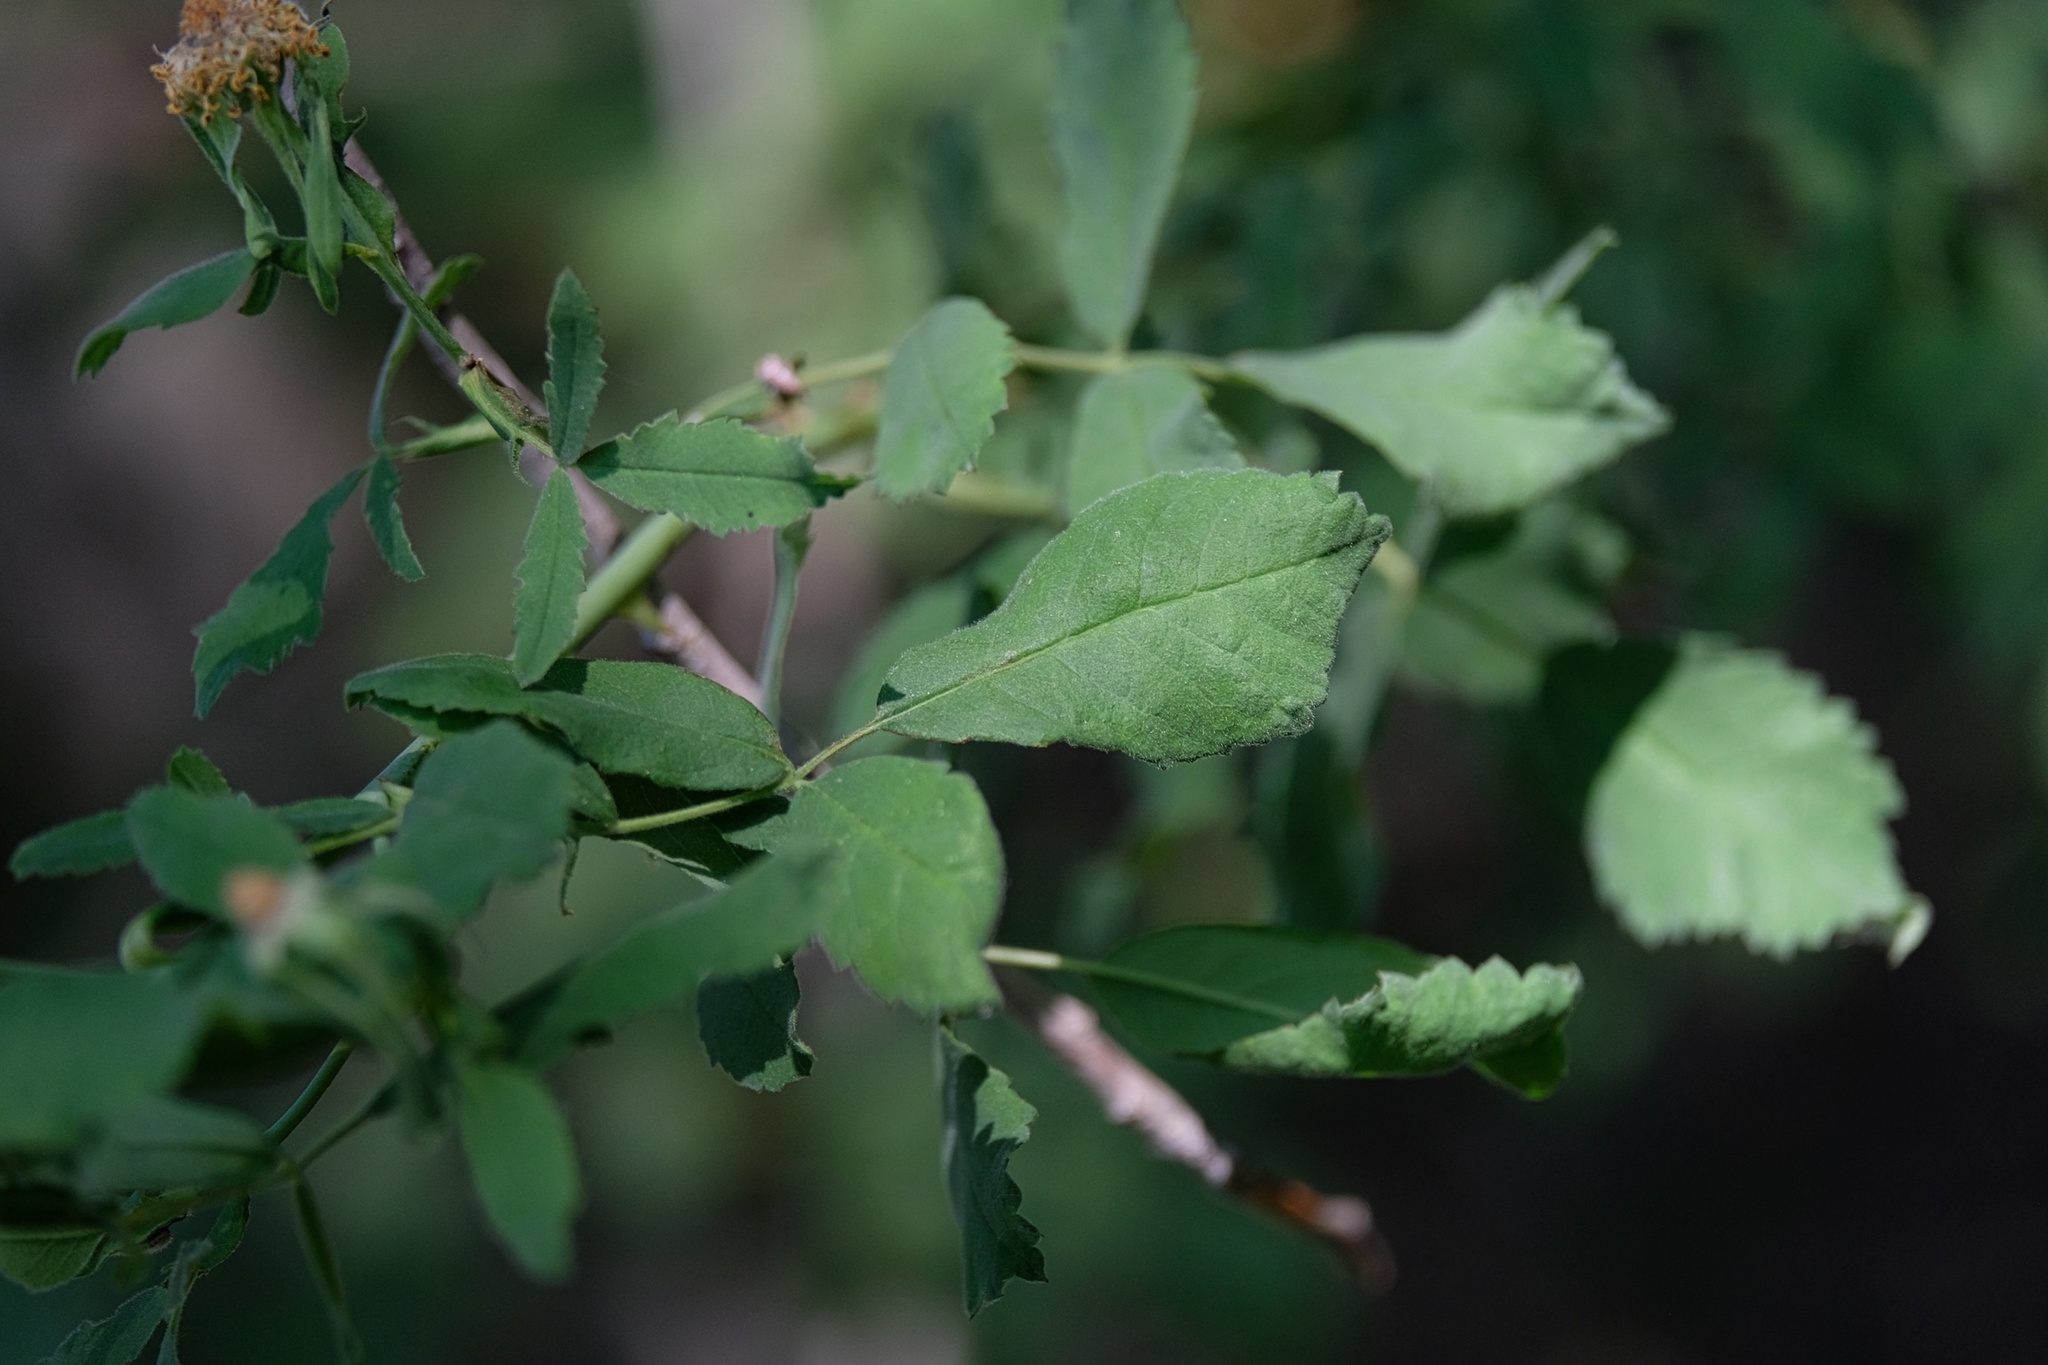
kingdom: Plantae
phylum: Tracheophyta
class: Magnoliopsida
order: Rosales
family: Rosaceae
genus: Rosa
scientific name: Rosa californica
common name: California rose
